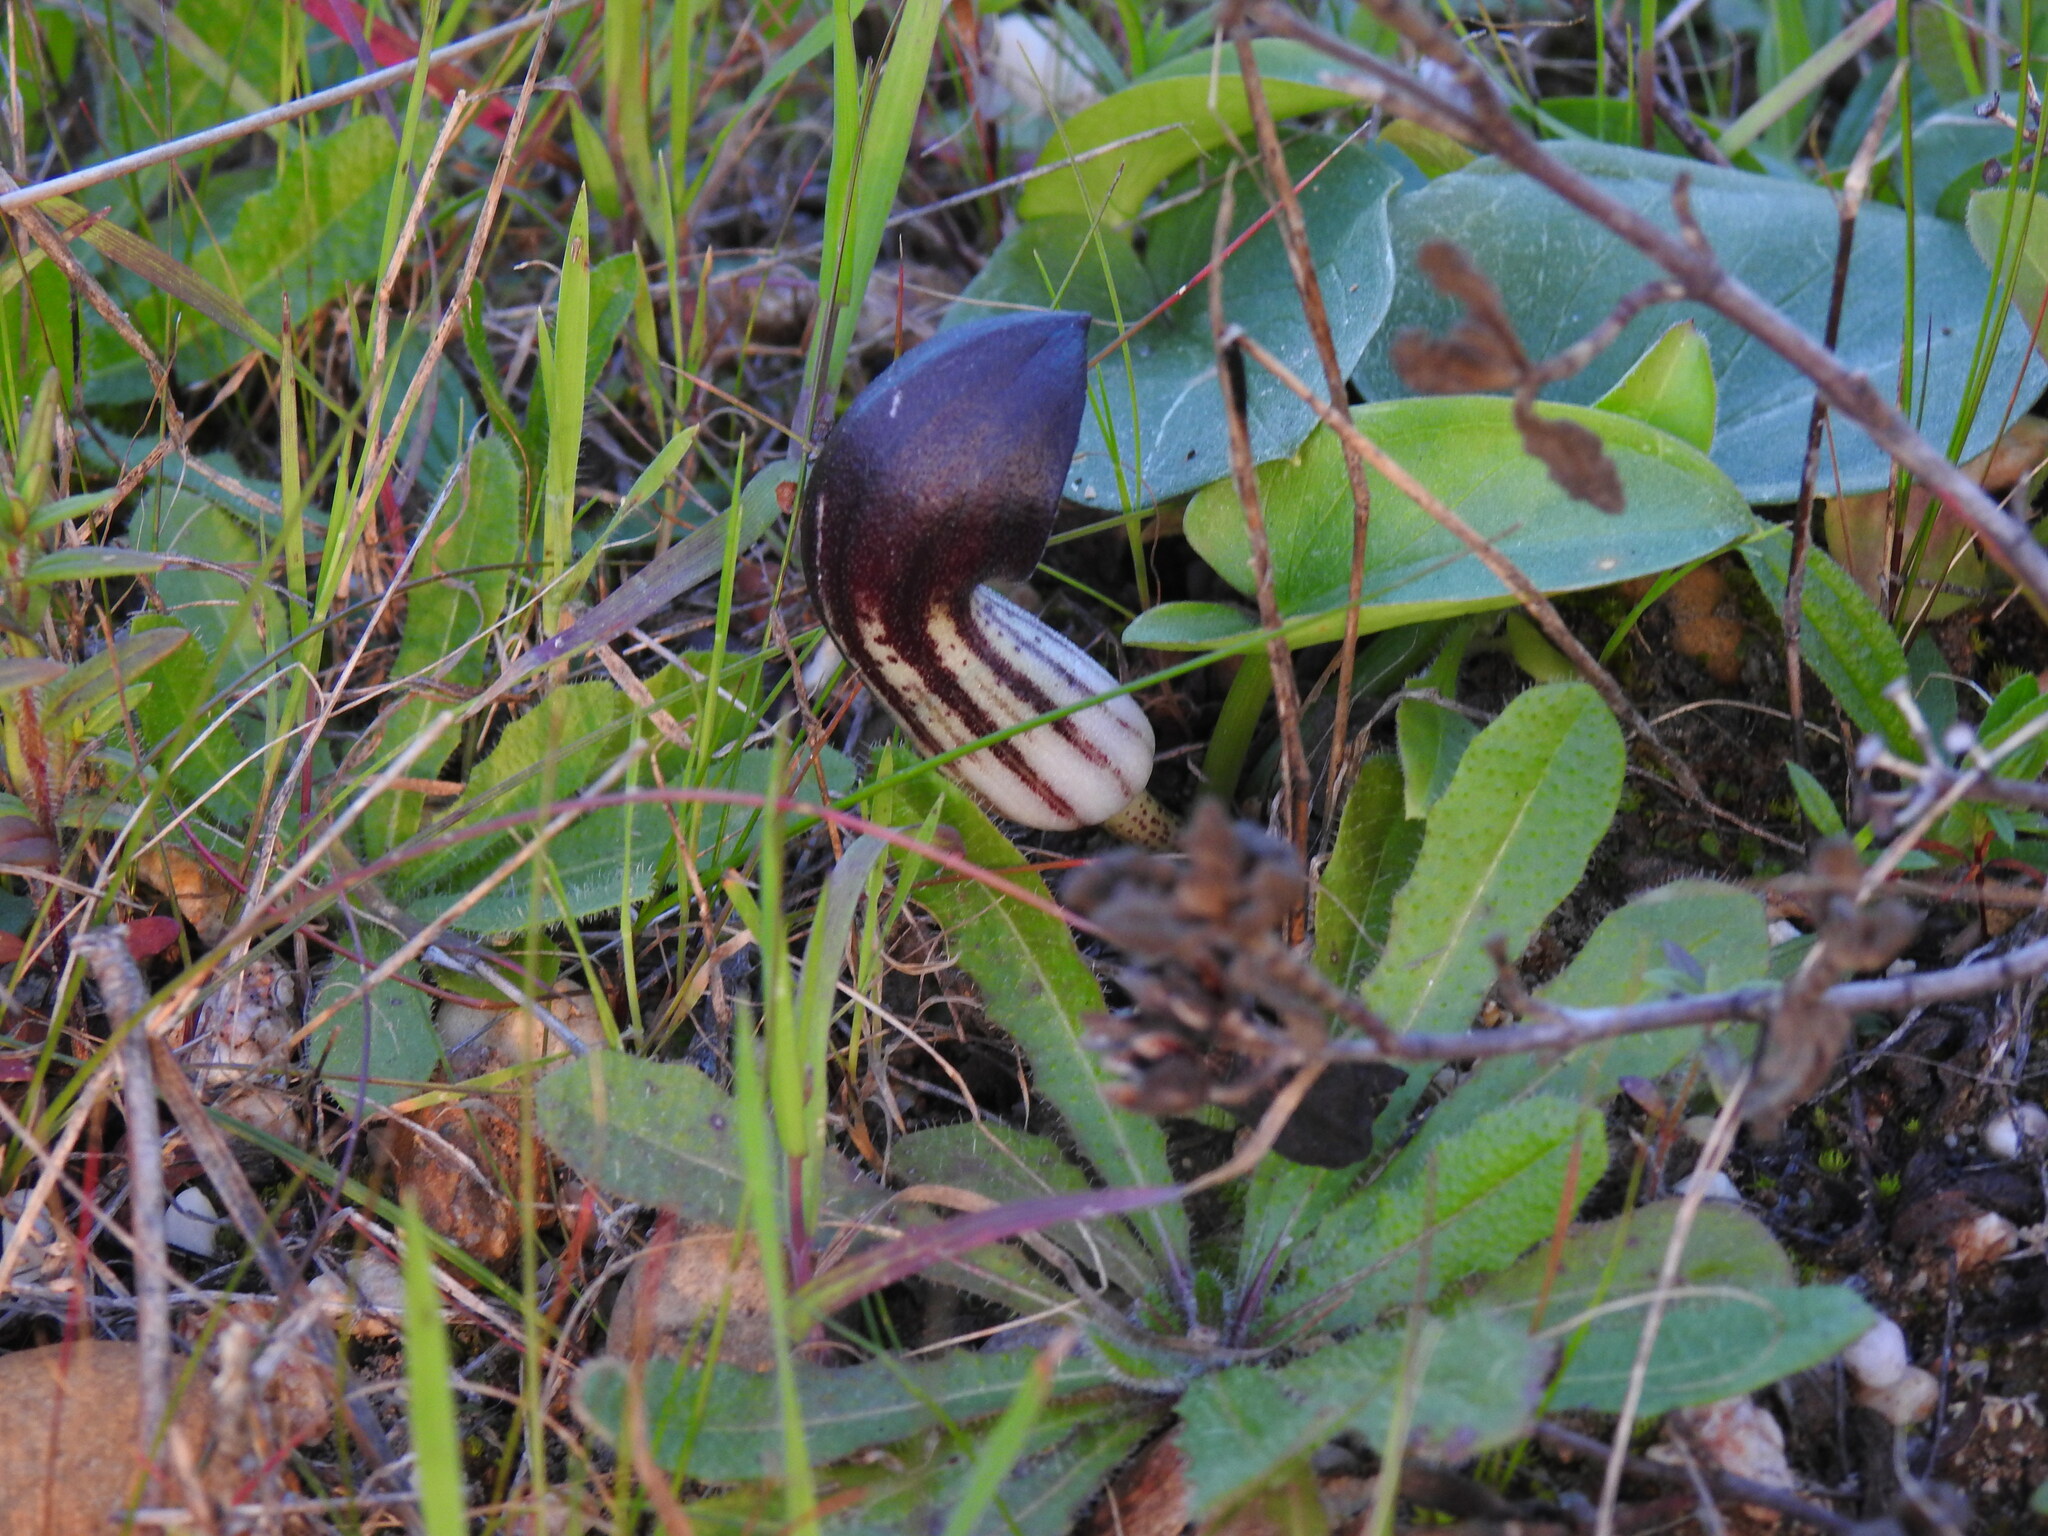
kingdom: Plantae
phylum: Tracheophyta
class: Liliopsida
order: Alismatales
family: Araceae
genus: Arisarum
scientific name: Arisarum simorrhinum
